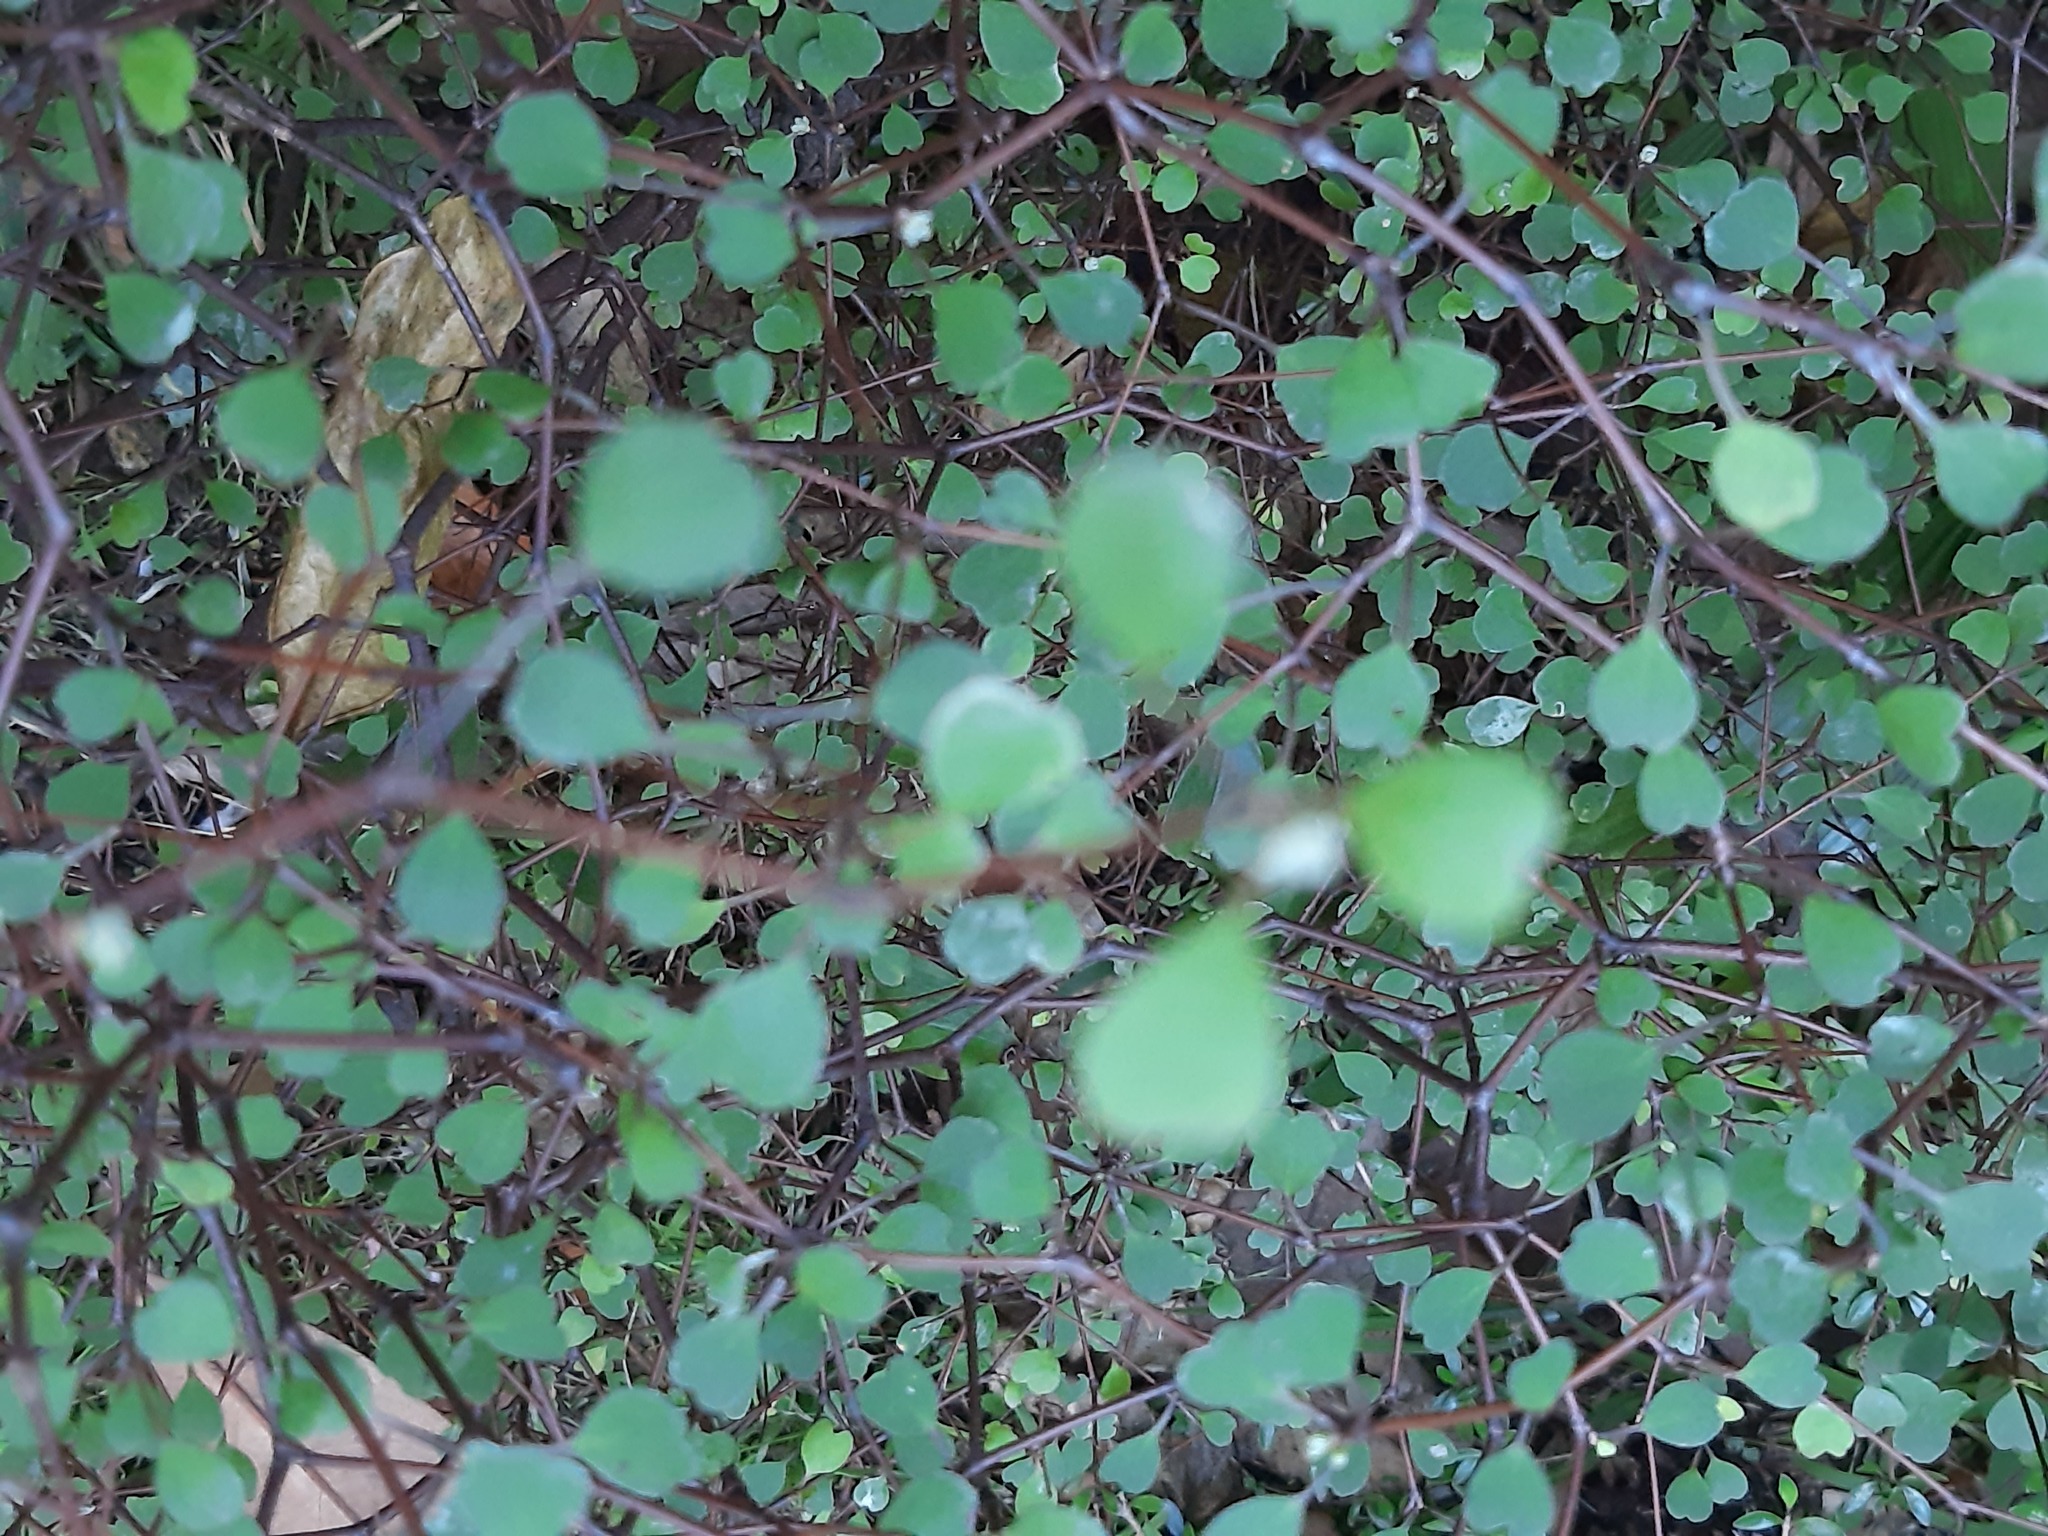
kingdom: Plantae
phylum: Tracheophyta
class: Magnoliopsida
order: Caryophyllales
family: Polygonaceae
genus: Muehlenbeckia
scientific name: Muehlenbeckia astonii
